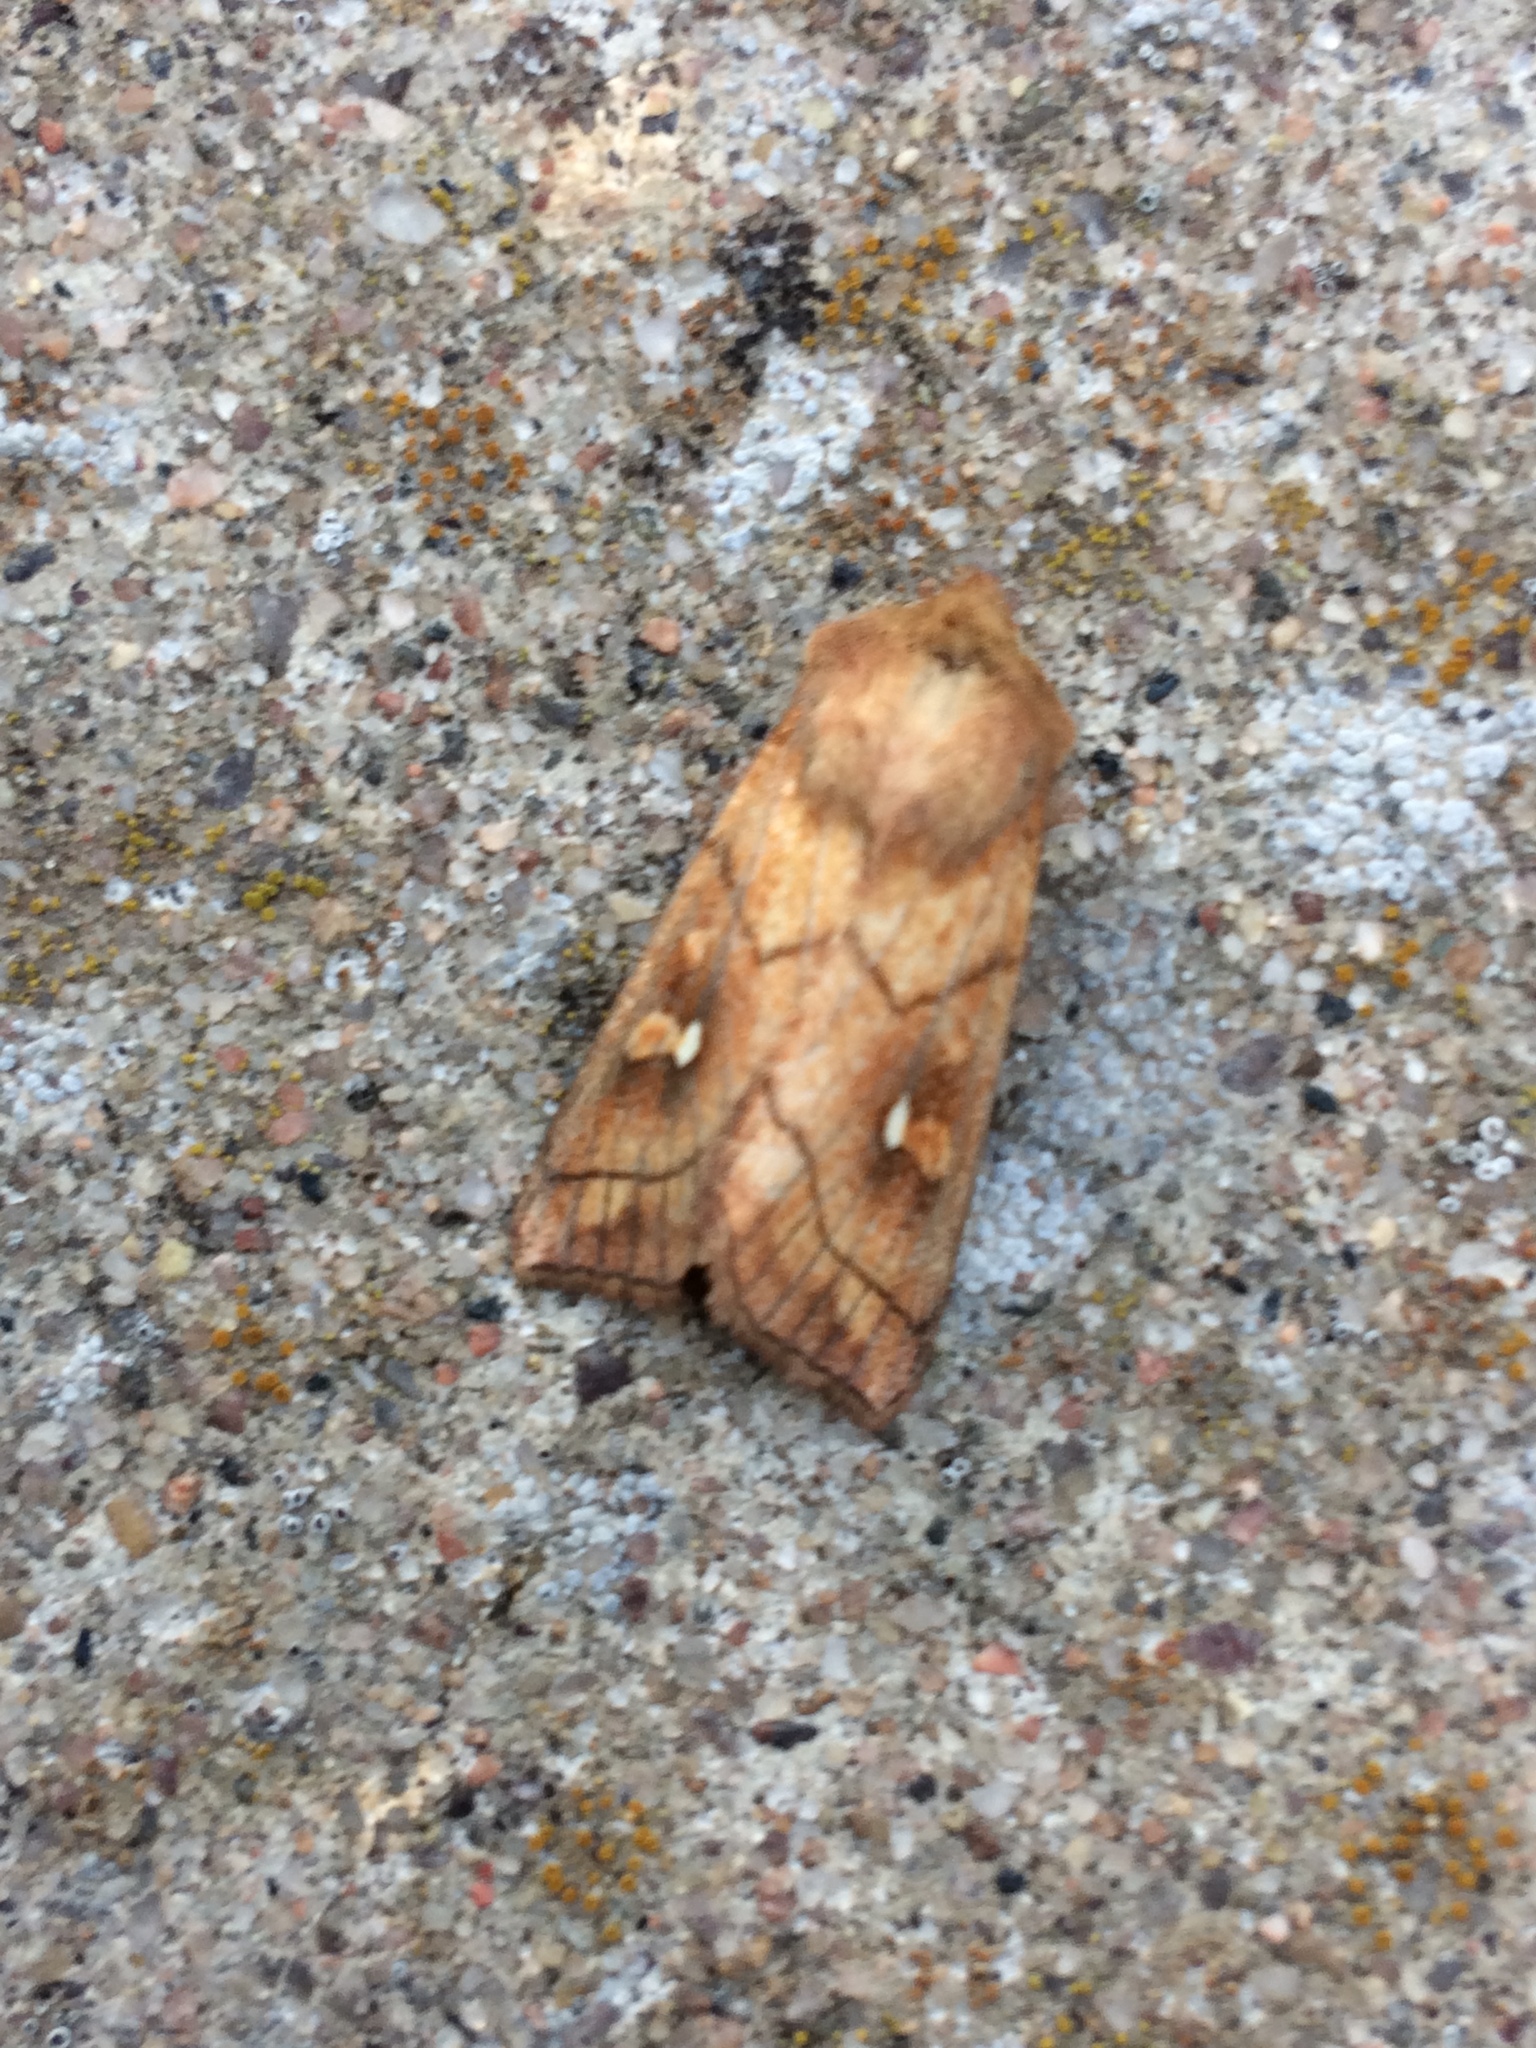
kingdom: Animalia
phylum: Arthropoda
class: Insecta
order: Lepidoptera
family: Noctuidae
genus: Mythimna
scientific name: Mythimna conigera
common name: Brown-line bright-eye
